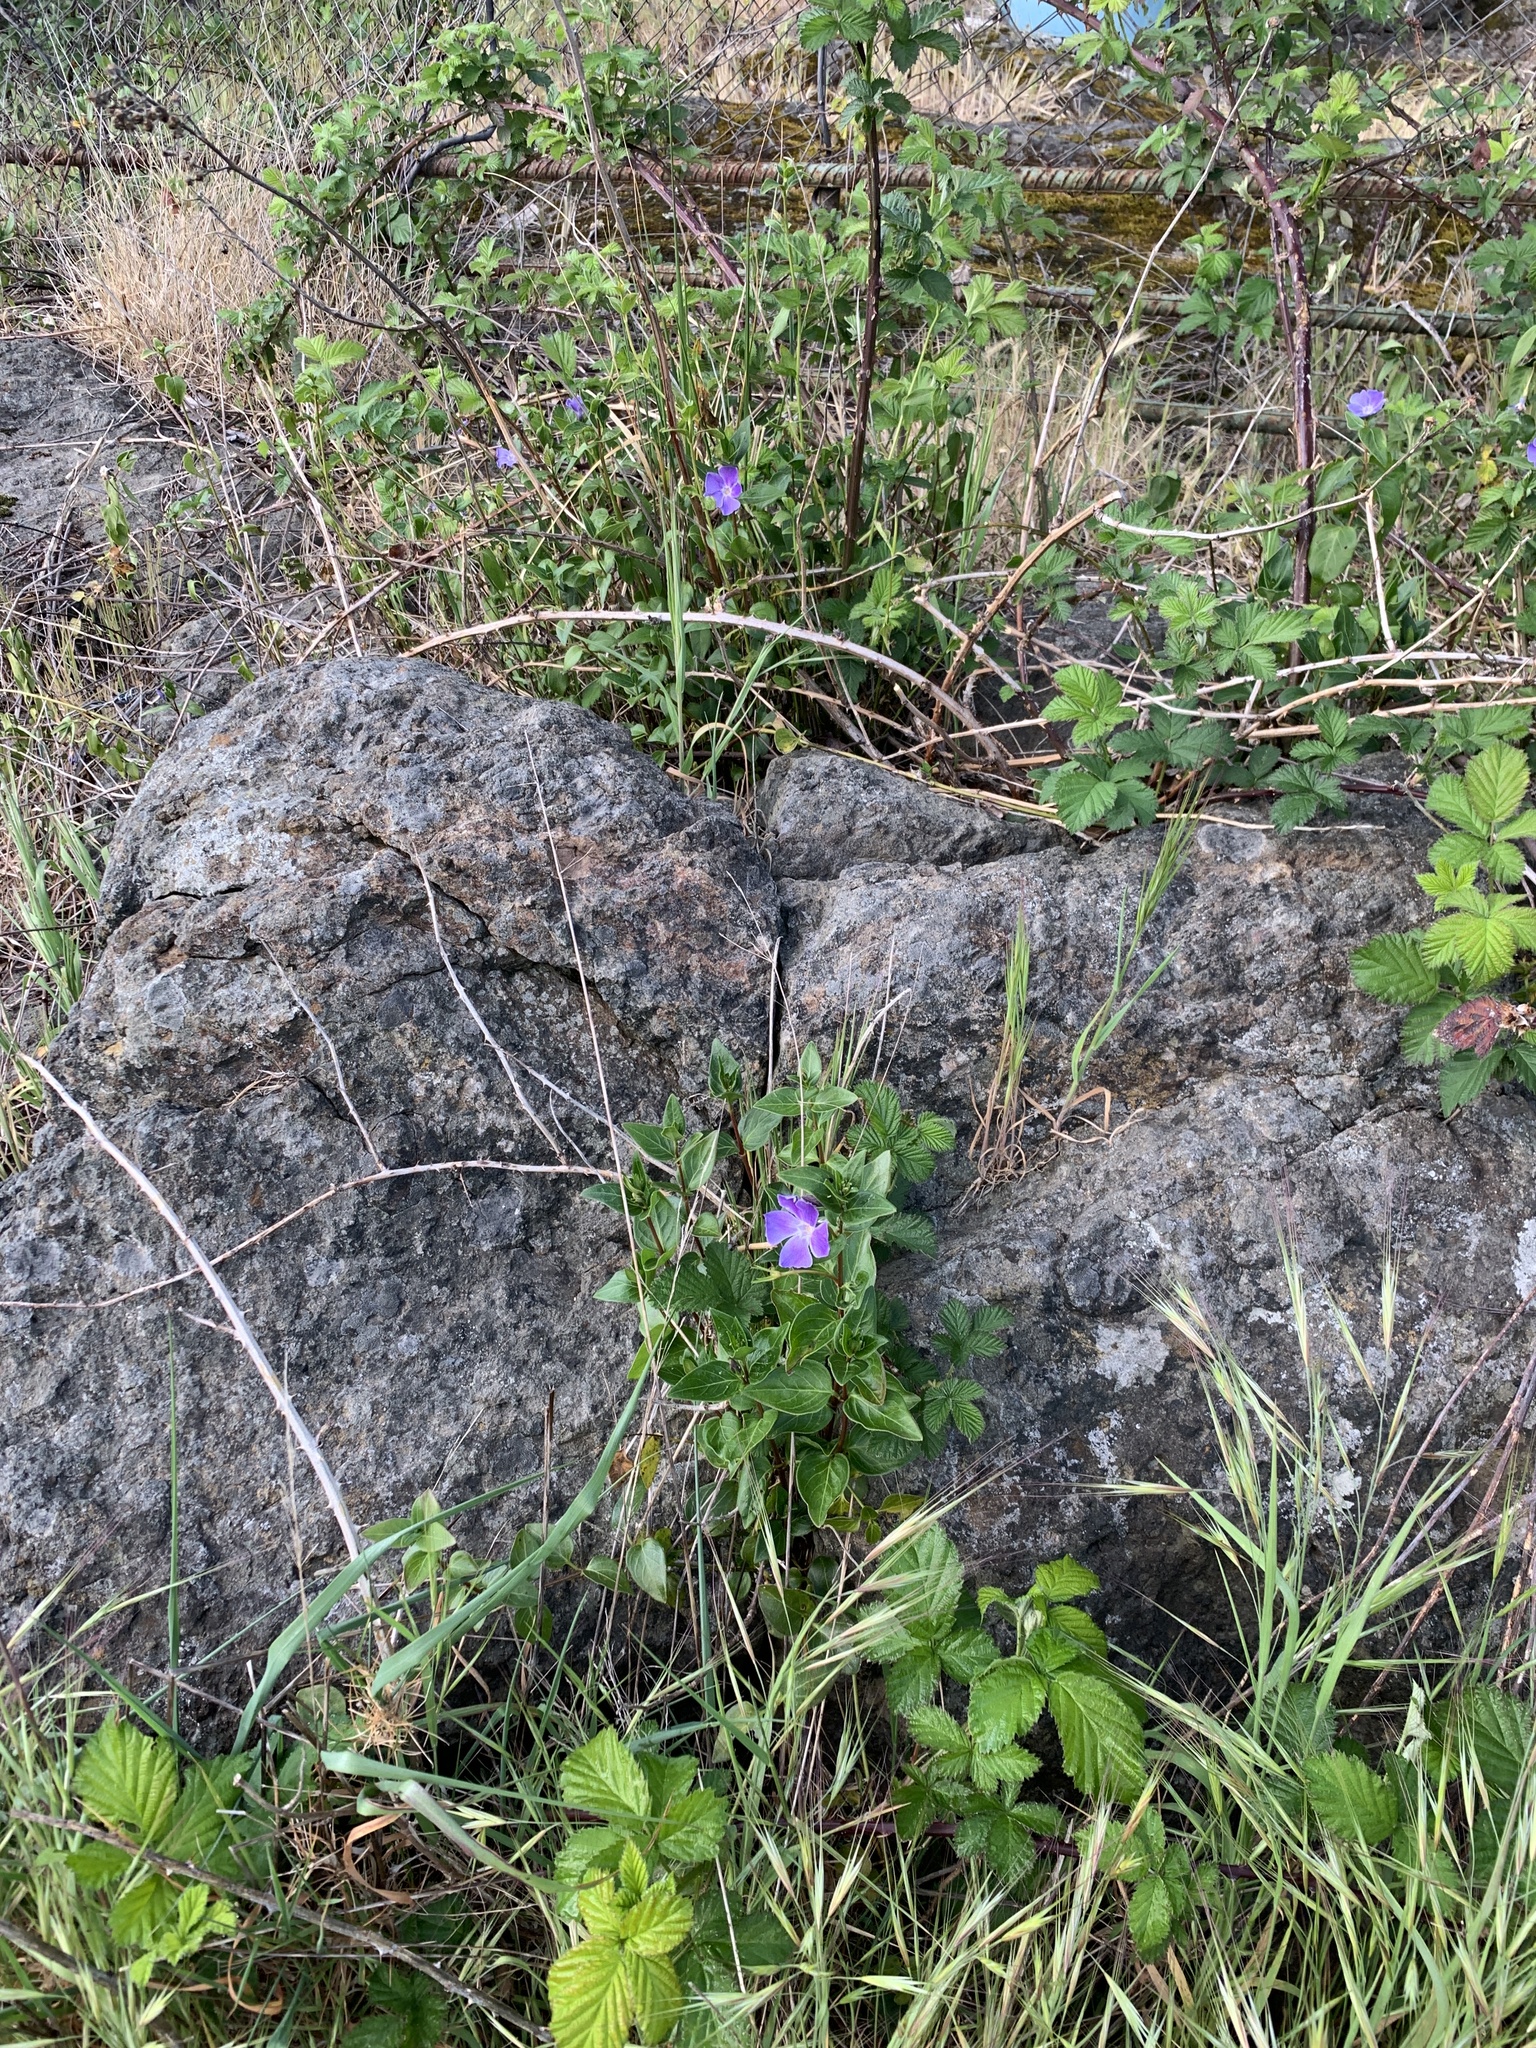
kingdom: Plantae
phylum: Tracheophyta
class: Magnoliopsida
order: Gentianales
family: Apocynaceae
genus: Vinca
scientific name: Vinca major
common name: Greater periwinkle
